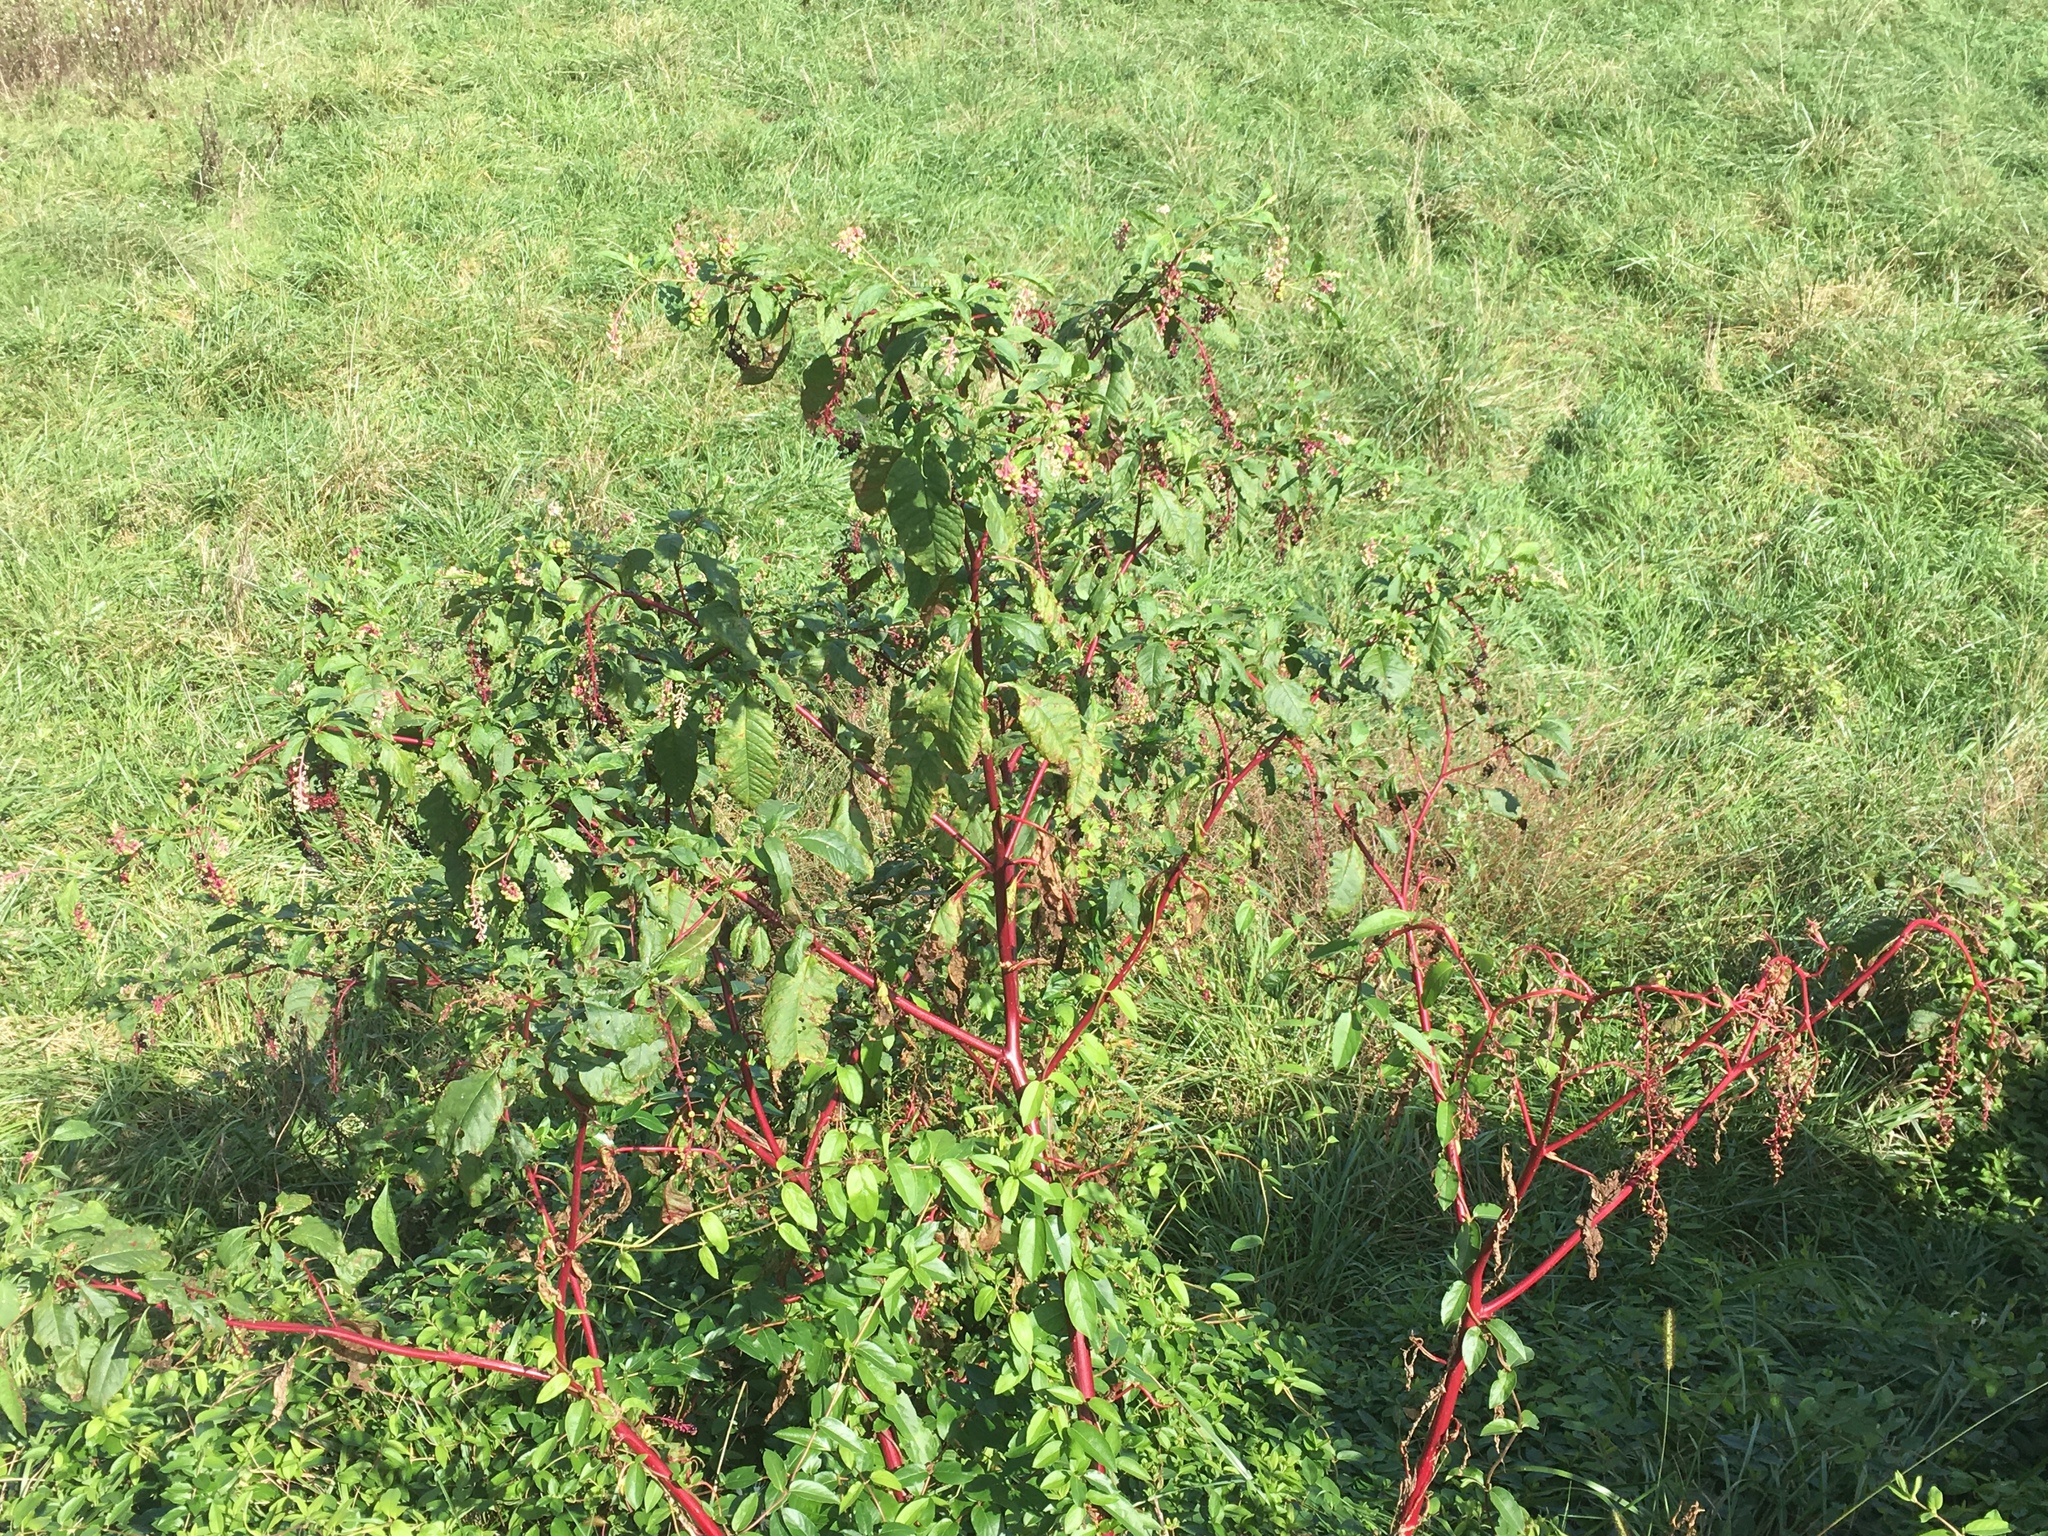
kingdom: Plantae
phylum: Tracheophyta
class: Magnoliopsida
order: Caryophyllales
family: Phytolaccaceae
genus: Phytolacca
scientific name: Phytolacca americana
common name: American pokeweed
